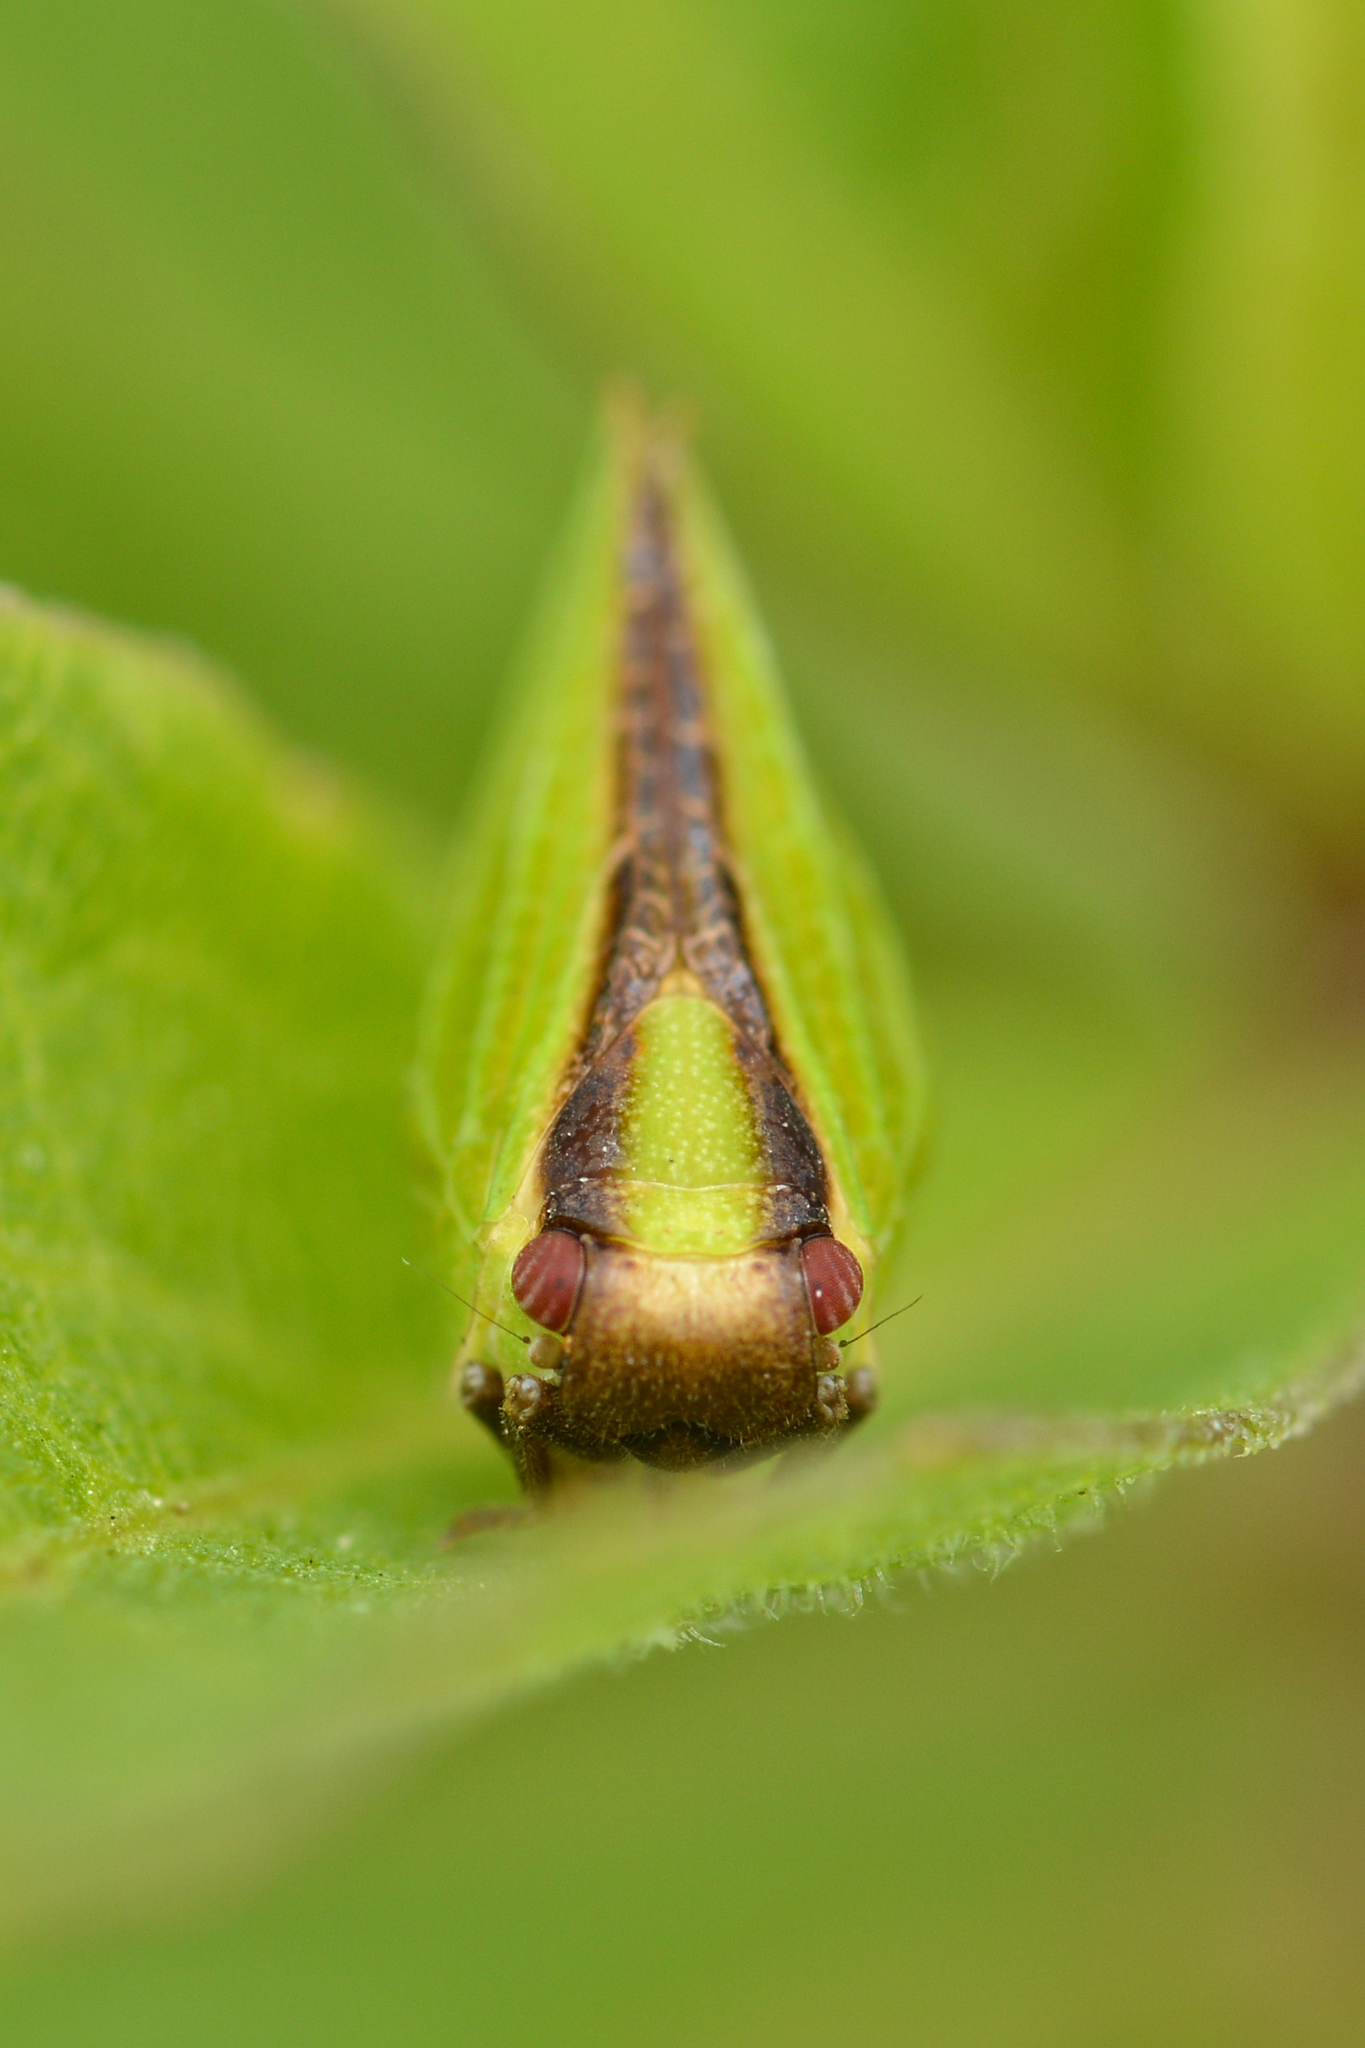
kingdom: Animalia
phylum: Arthropoda
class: Insecta
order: Hemiptera
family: Acanaloniidae
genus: Acanalonia
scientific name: Acanalonia bivittata
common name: Two-striped planthopper
